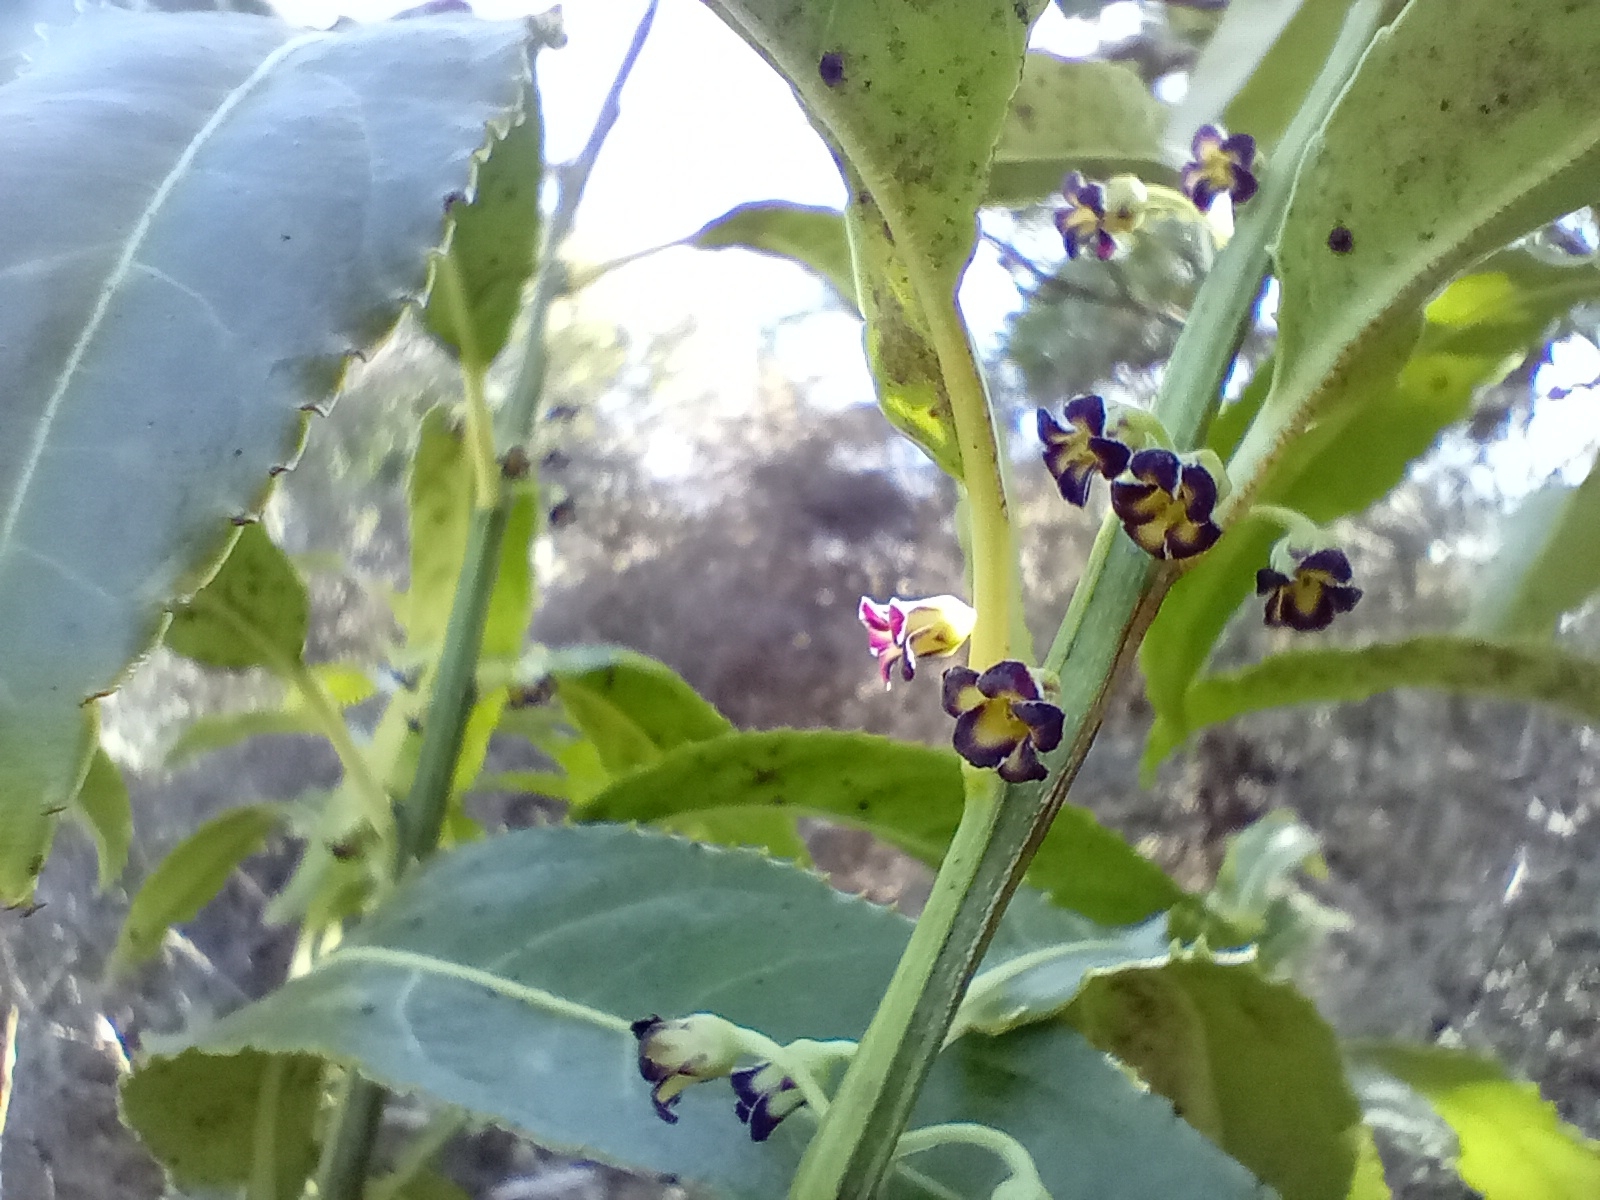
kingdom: Plantae
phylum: Tracheophyta
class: Magnoliopsida
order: Malpighiales
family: Violaceae
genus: Melicytus
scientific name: Melicytus lanceolatus
